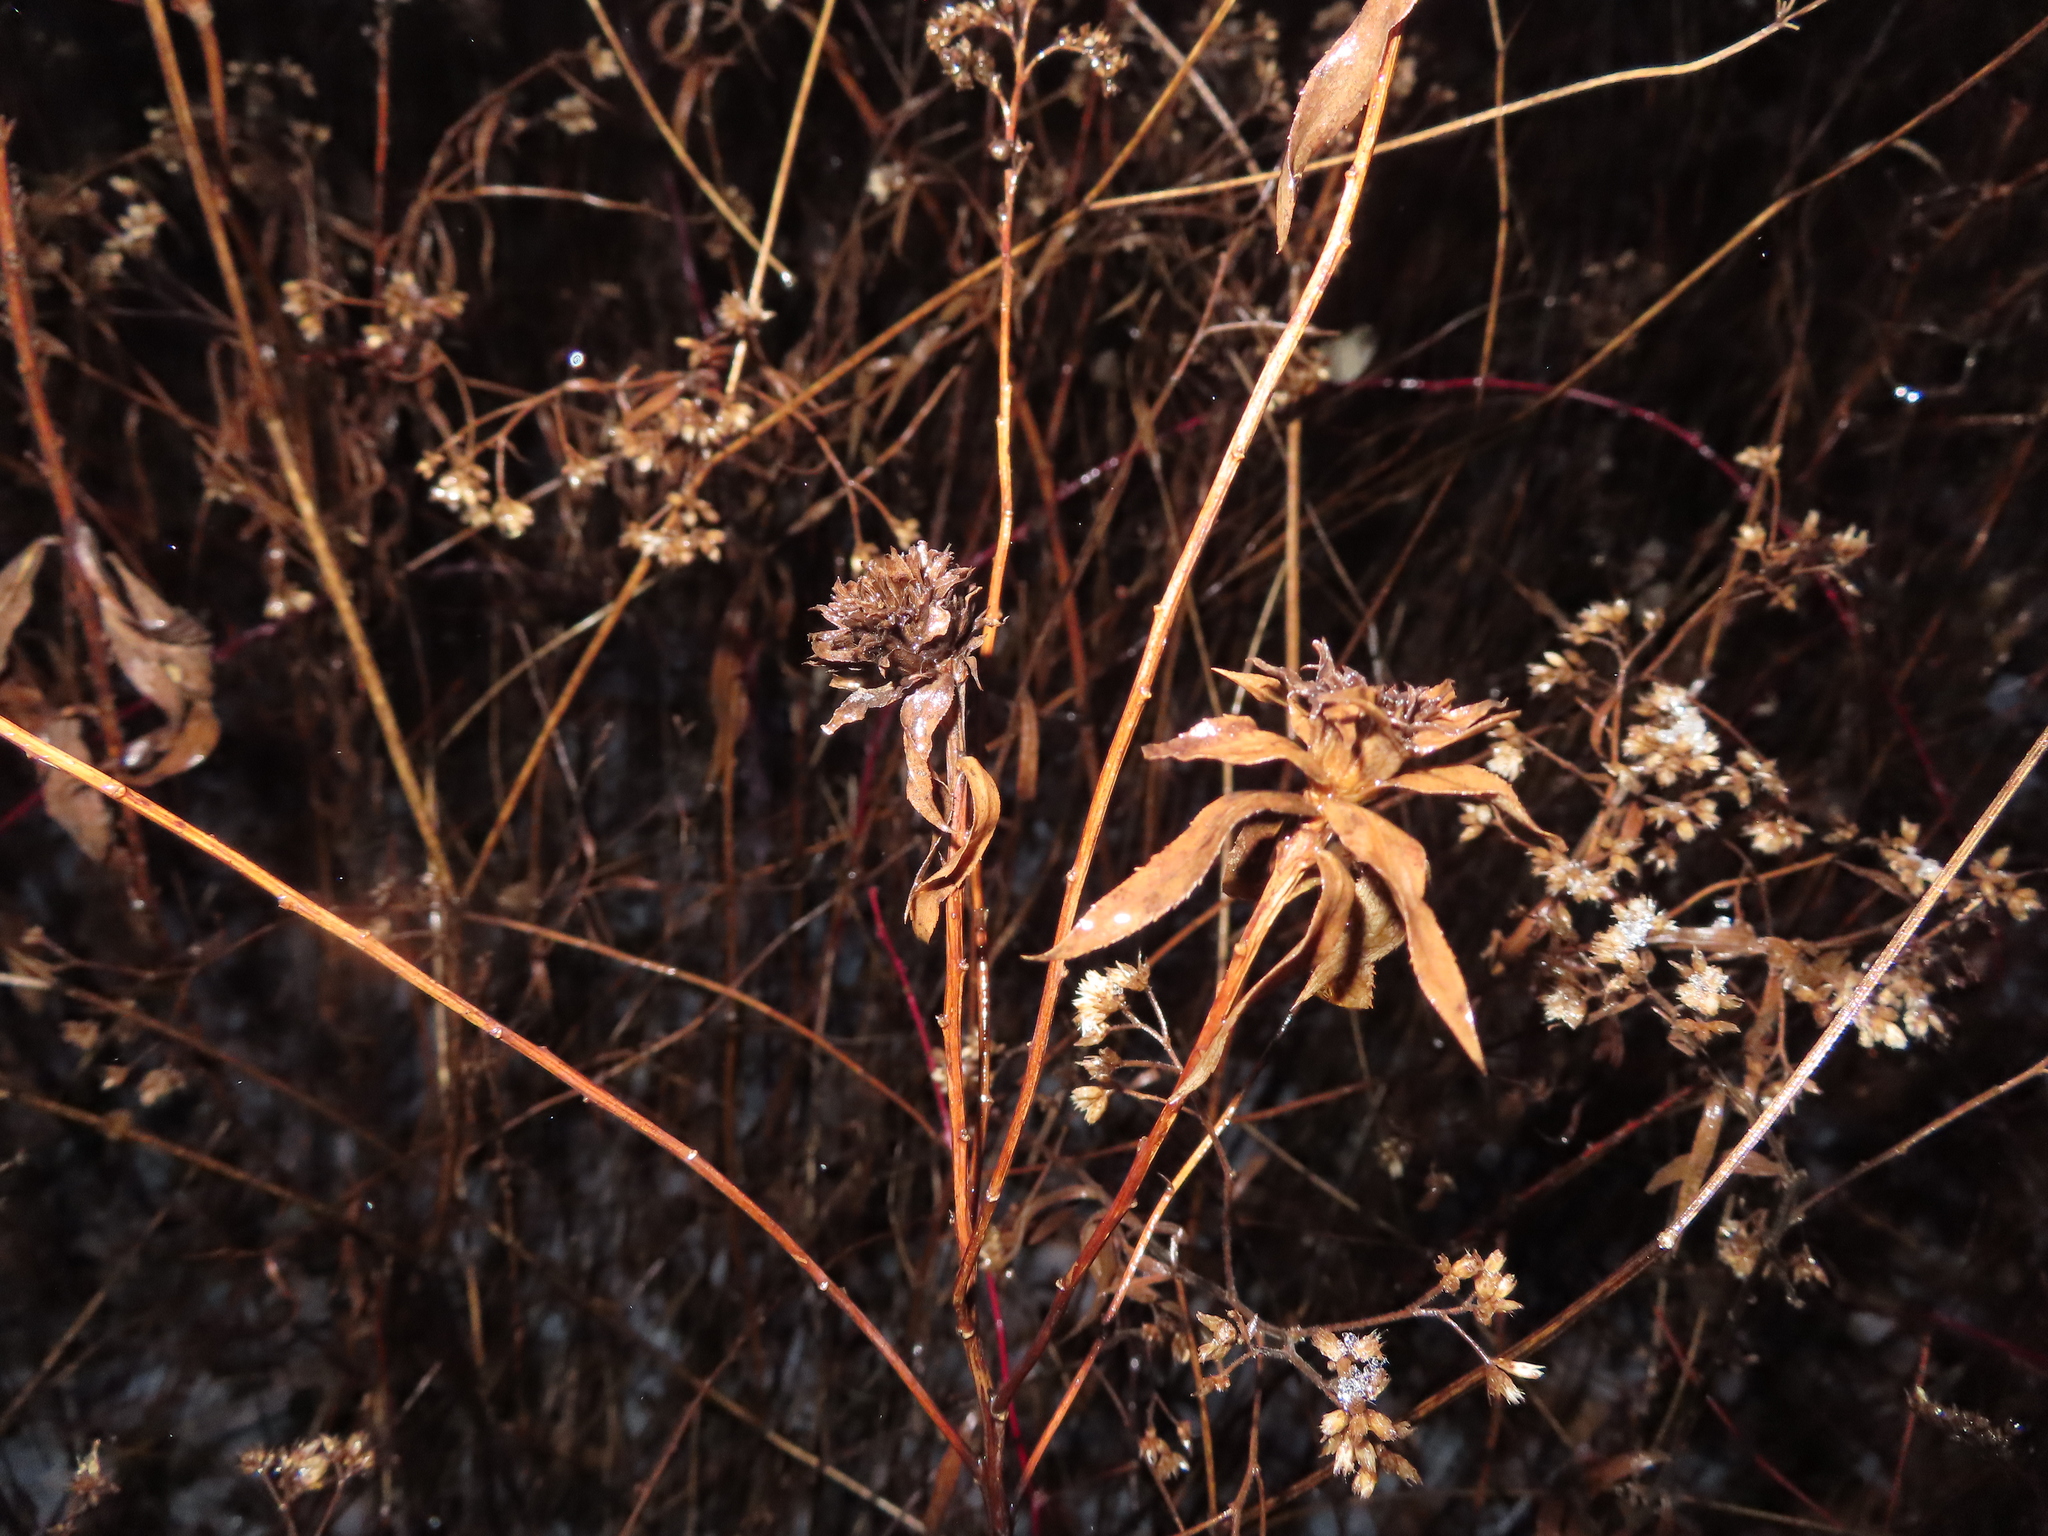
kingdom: Animalia
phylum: Arthropoda
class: Insecta
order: Diptera
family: Cecidomyiidae
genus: Rhopalomyia
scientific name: Rhopalomyia capitata
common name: Giant goldenrod bunch gall midge
